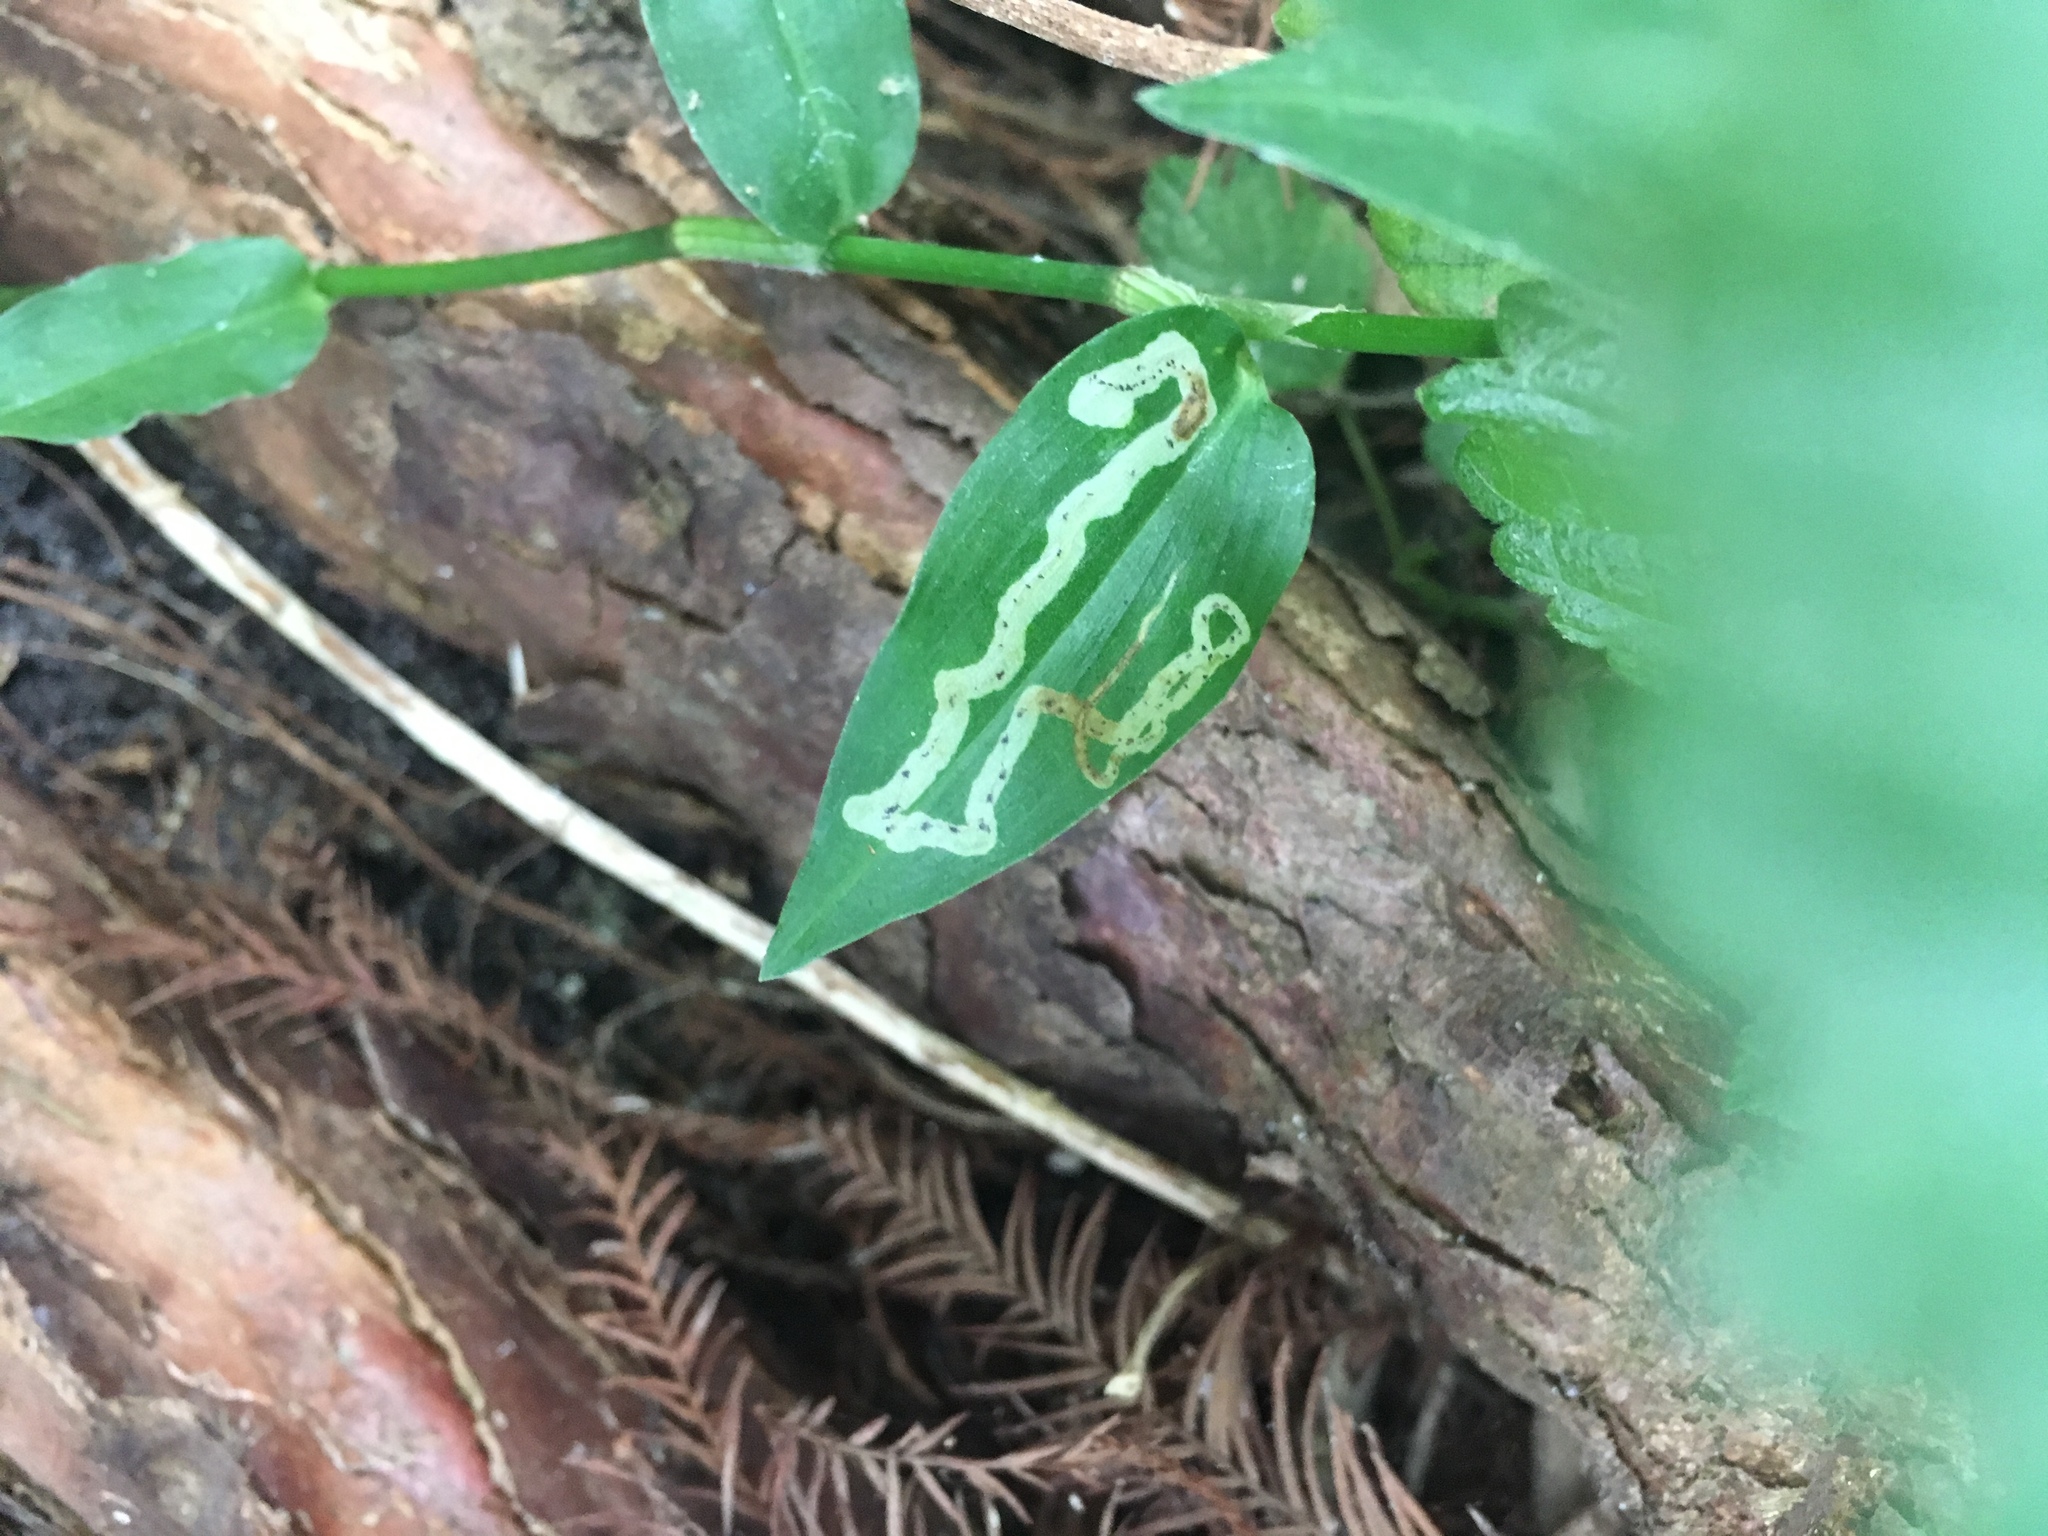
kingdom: Animalia
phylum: Arthropoda
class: Insecta
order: Diptera
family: Agromyzidae
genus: Liriomyza
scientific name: Liriomyza commelinae
